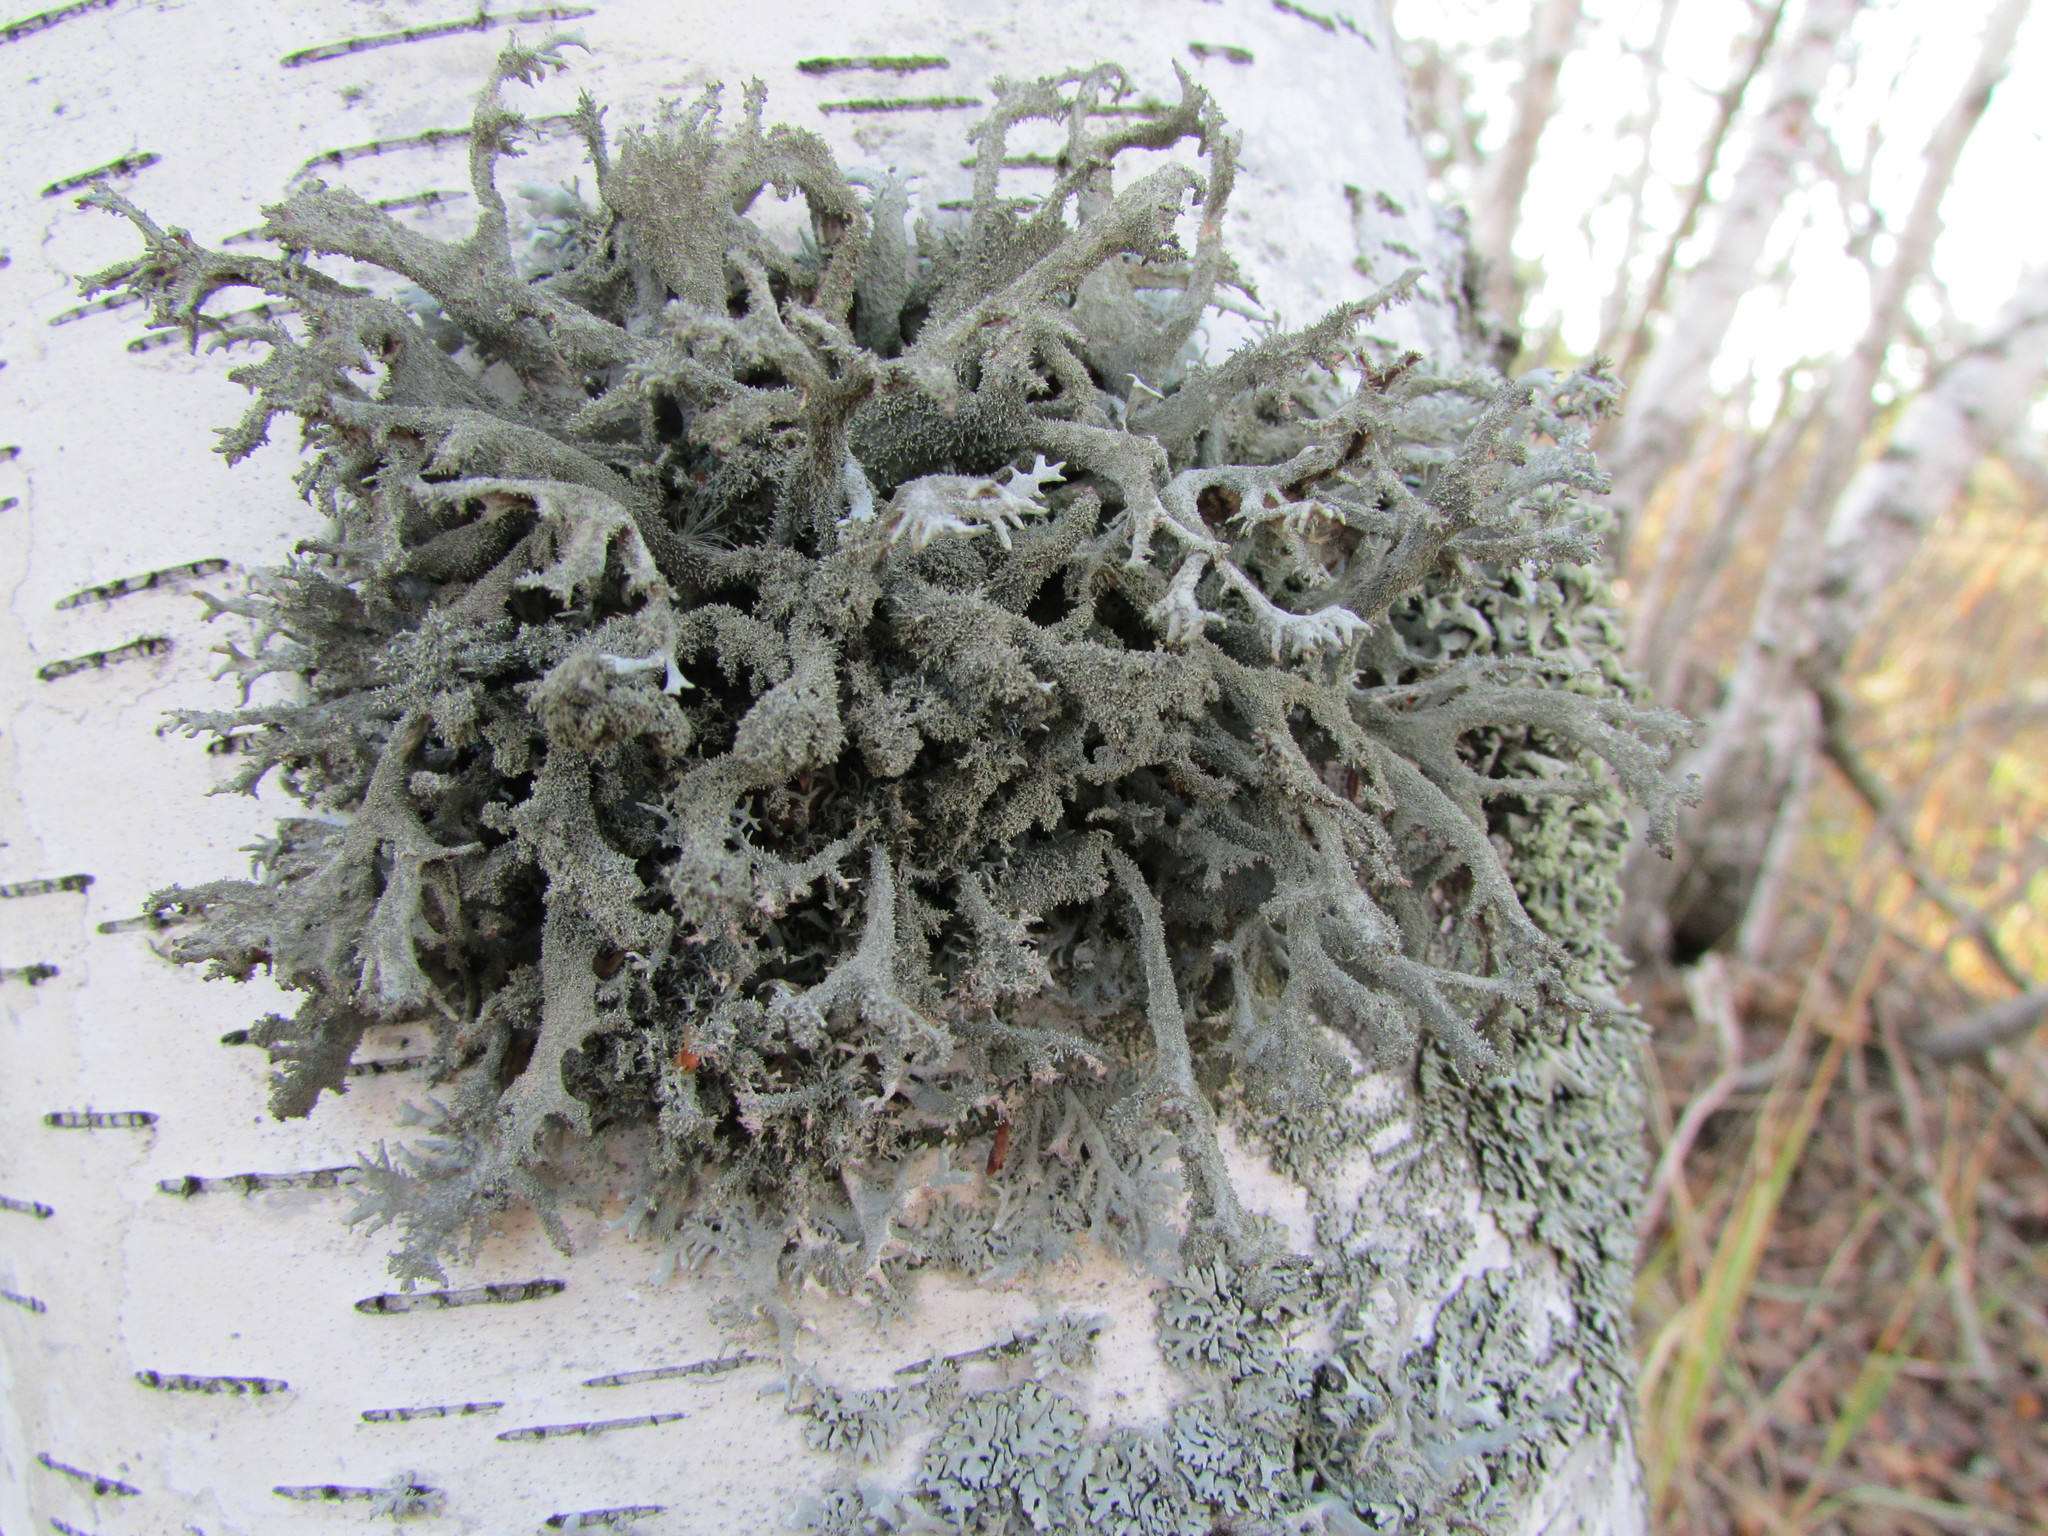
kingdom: Fungi
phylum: Ascomycota
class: Lecanoromycetes
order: Lecanorales
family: Parmeliaceae
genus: Pseudevernia
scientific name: Pseudevernia furfuracea
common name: Tree moss
